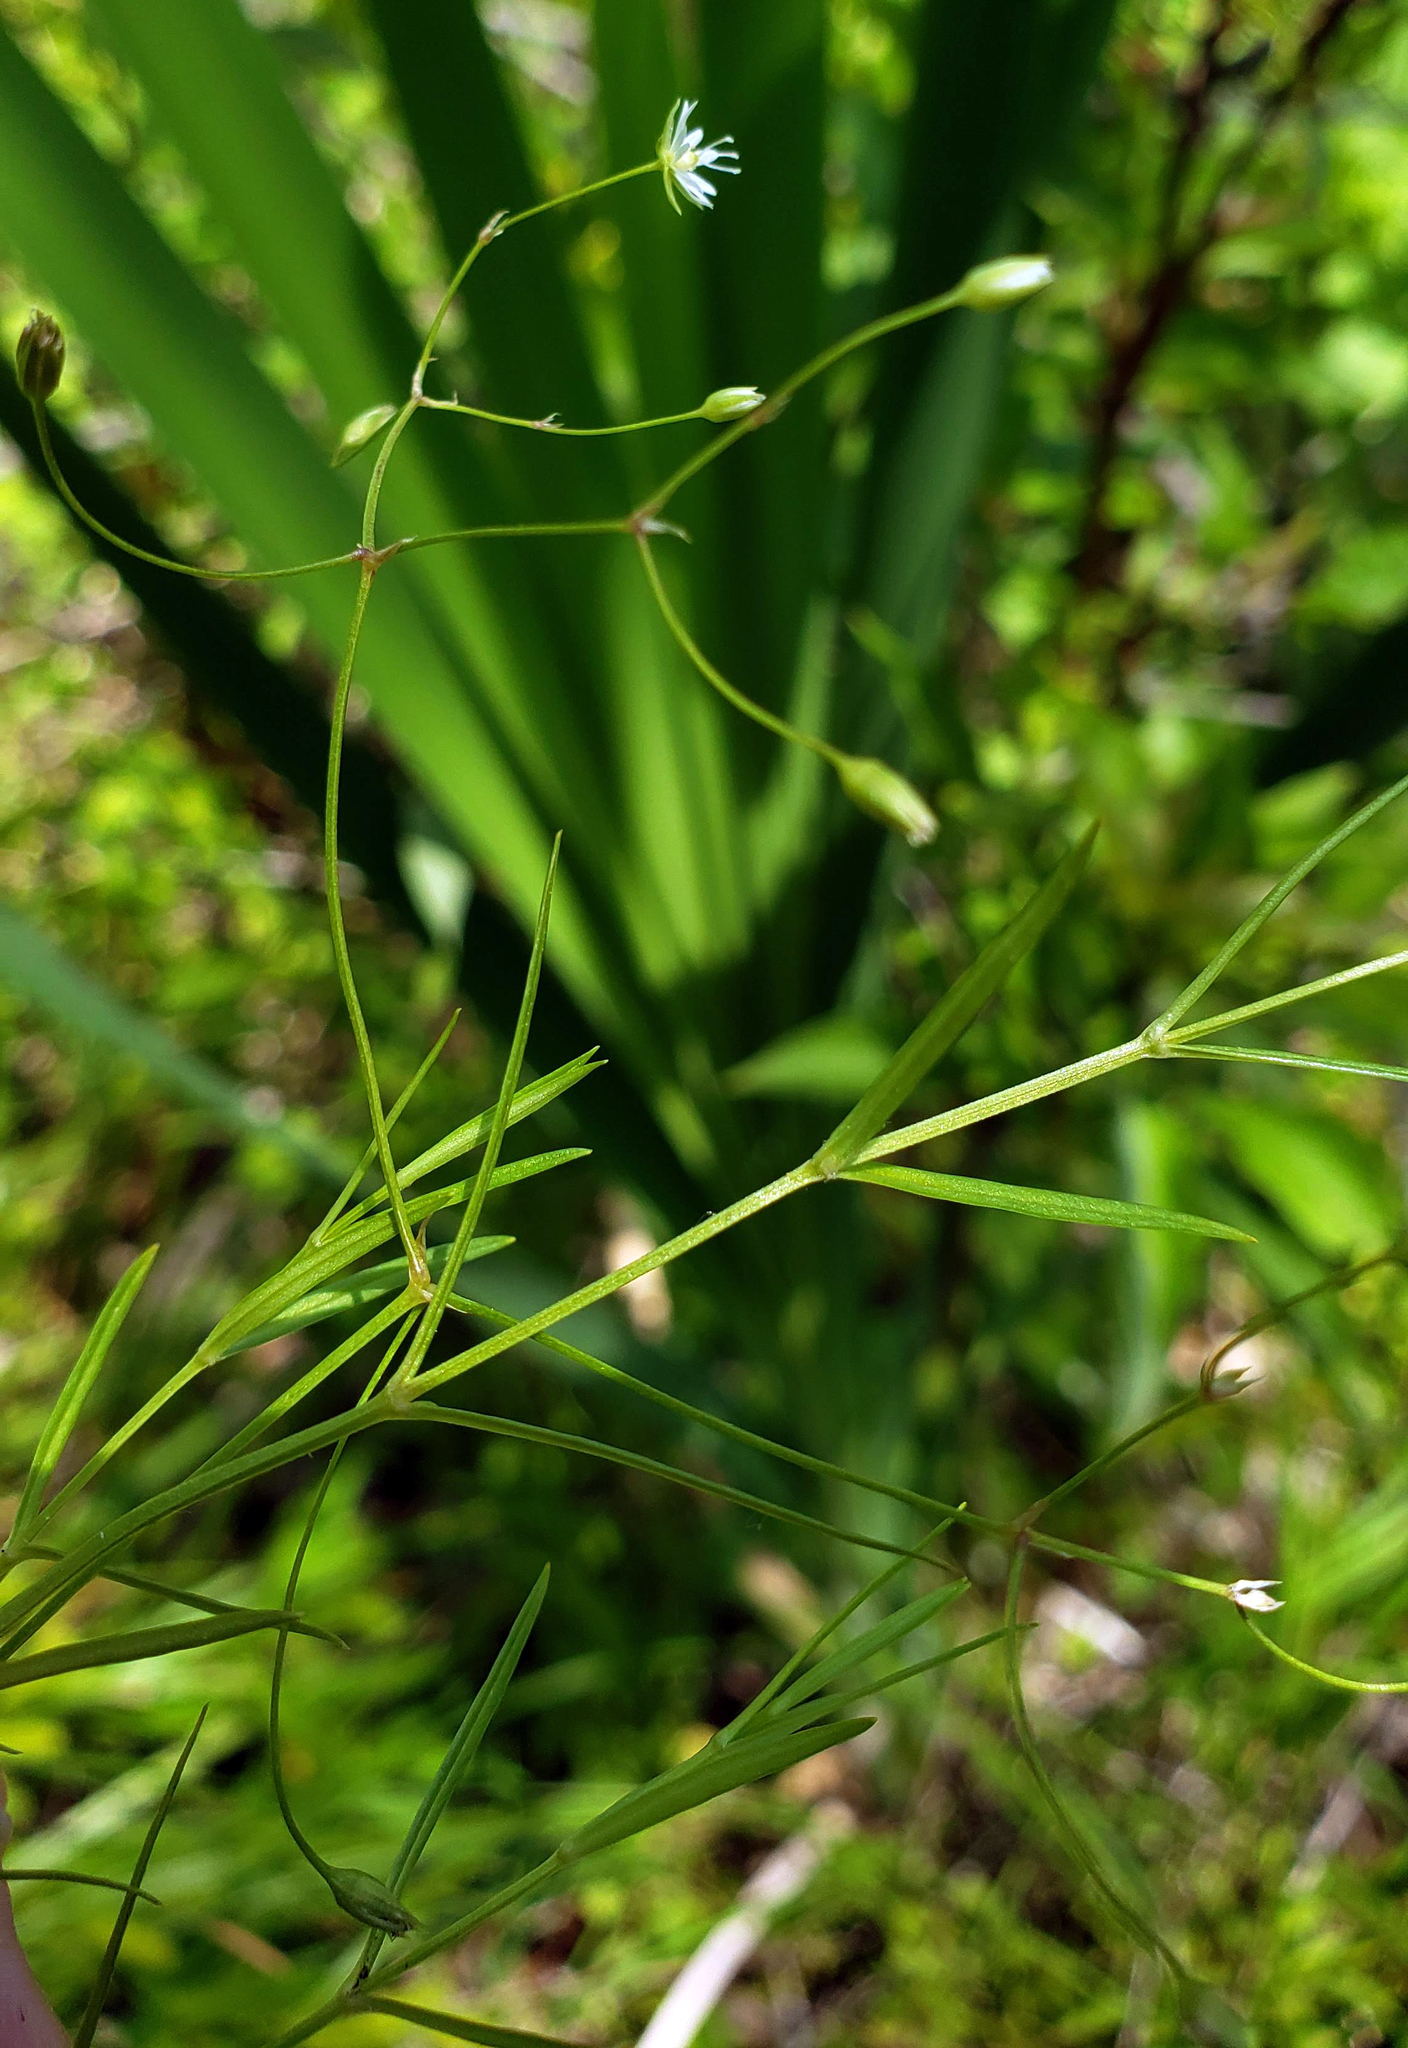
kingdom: Plantae
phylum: Tracheophyta
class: Magnoliopsida
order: Caryophyllales
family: Caryophyllaceae
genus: Stellaria
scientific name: Stellaria longifolia
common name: Long-leaved chickweed
